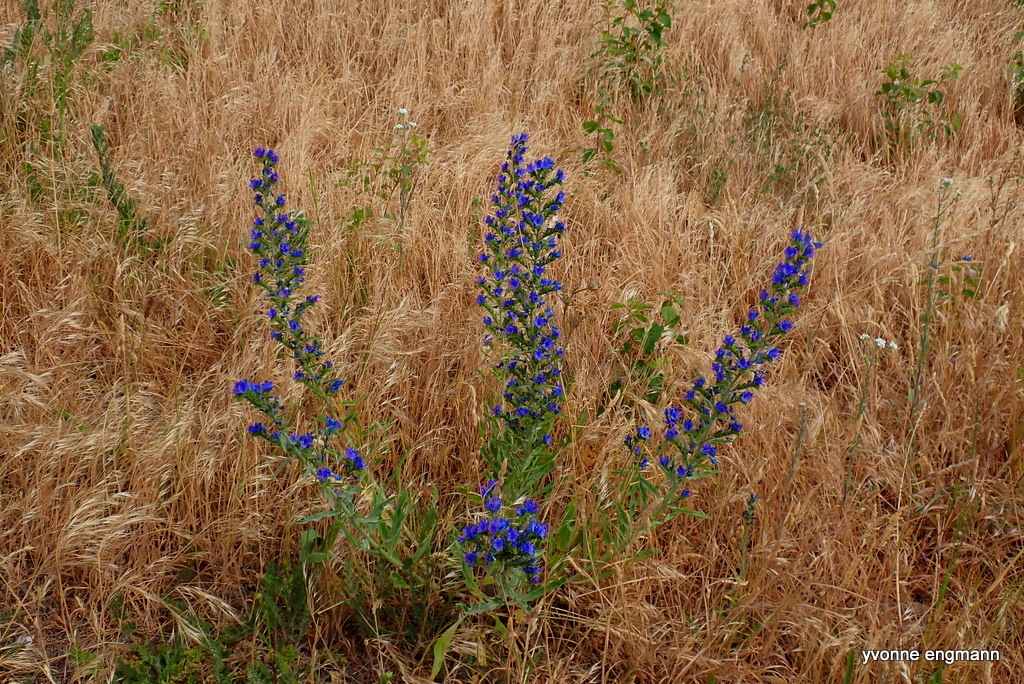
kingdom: Plantae
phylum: Tracheophyta
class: Magnoliopsida
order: Boraginales
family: Boraginaceae
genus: Echium
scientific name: Echium vulgare
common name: Common viper's bugloss
